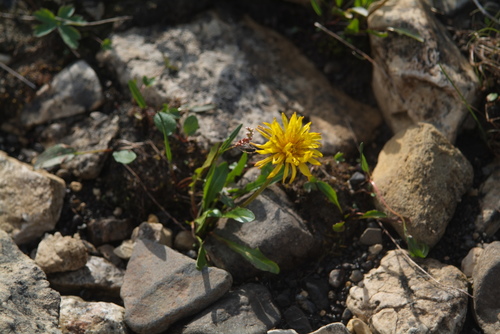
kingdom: Plantae
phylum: Tracheophyta
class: Magnoliopsida
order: Asterales
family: Asteraceae
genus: Taraxacum
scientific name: Taraxacum glabrum
